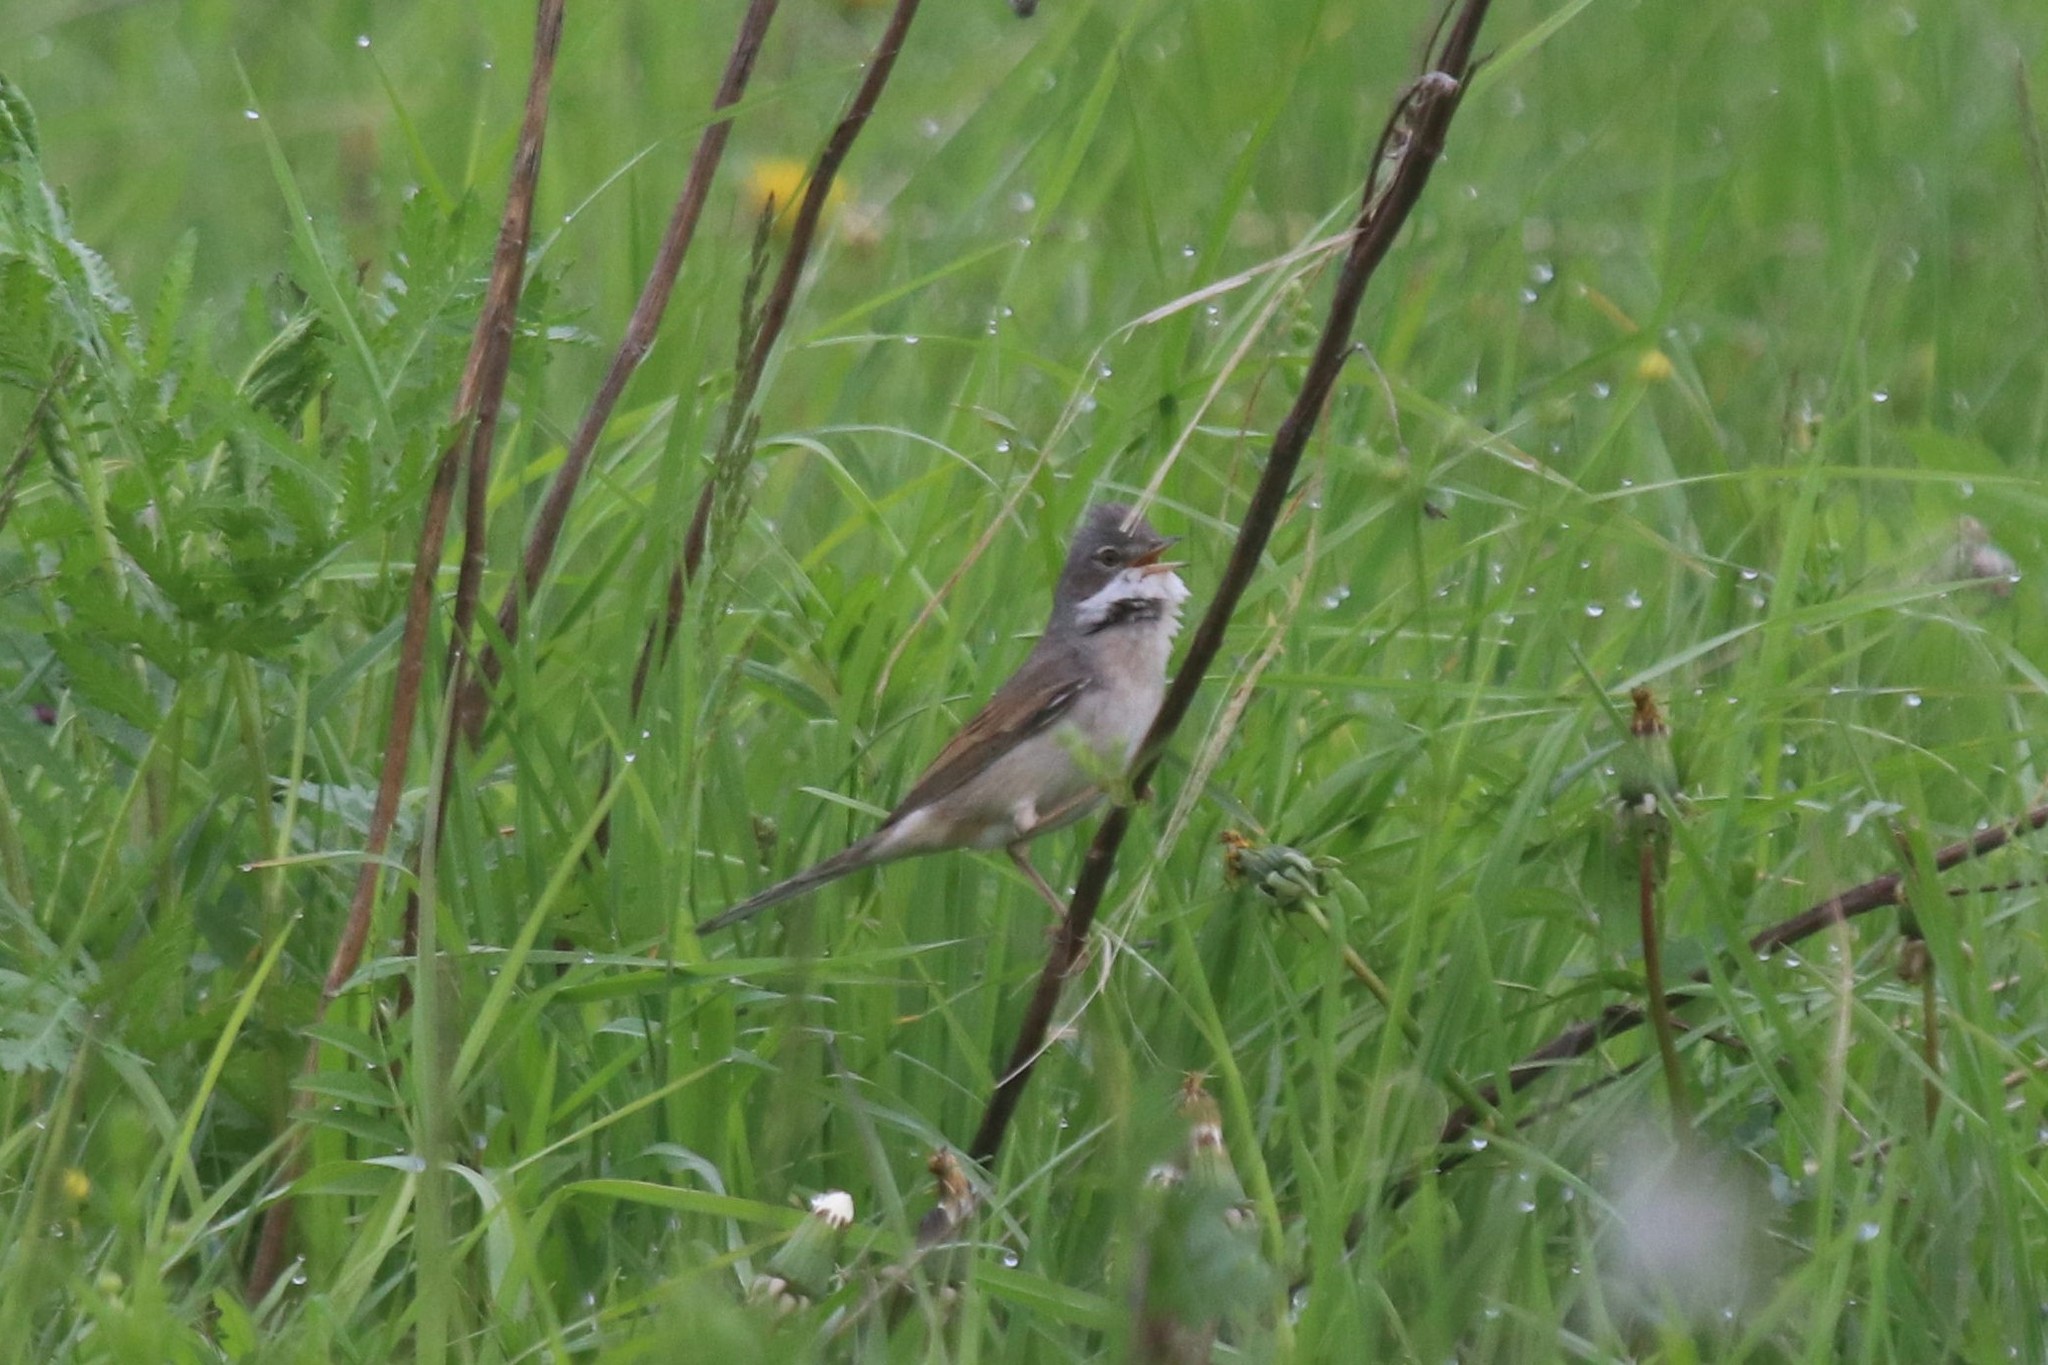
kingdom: Animalia
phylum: Chordata
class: Aves
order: Passeriformes
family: Sylviidae
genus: Sylvia
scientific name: Sylvia communis
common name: Common whitethroat
